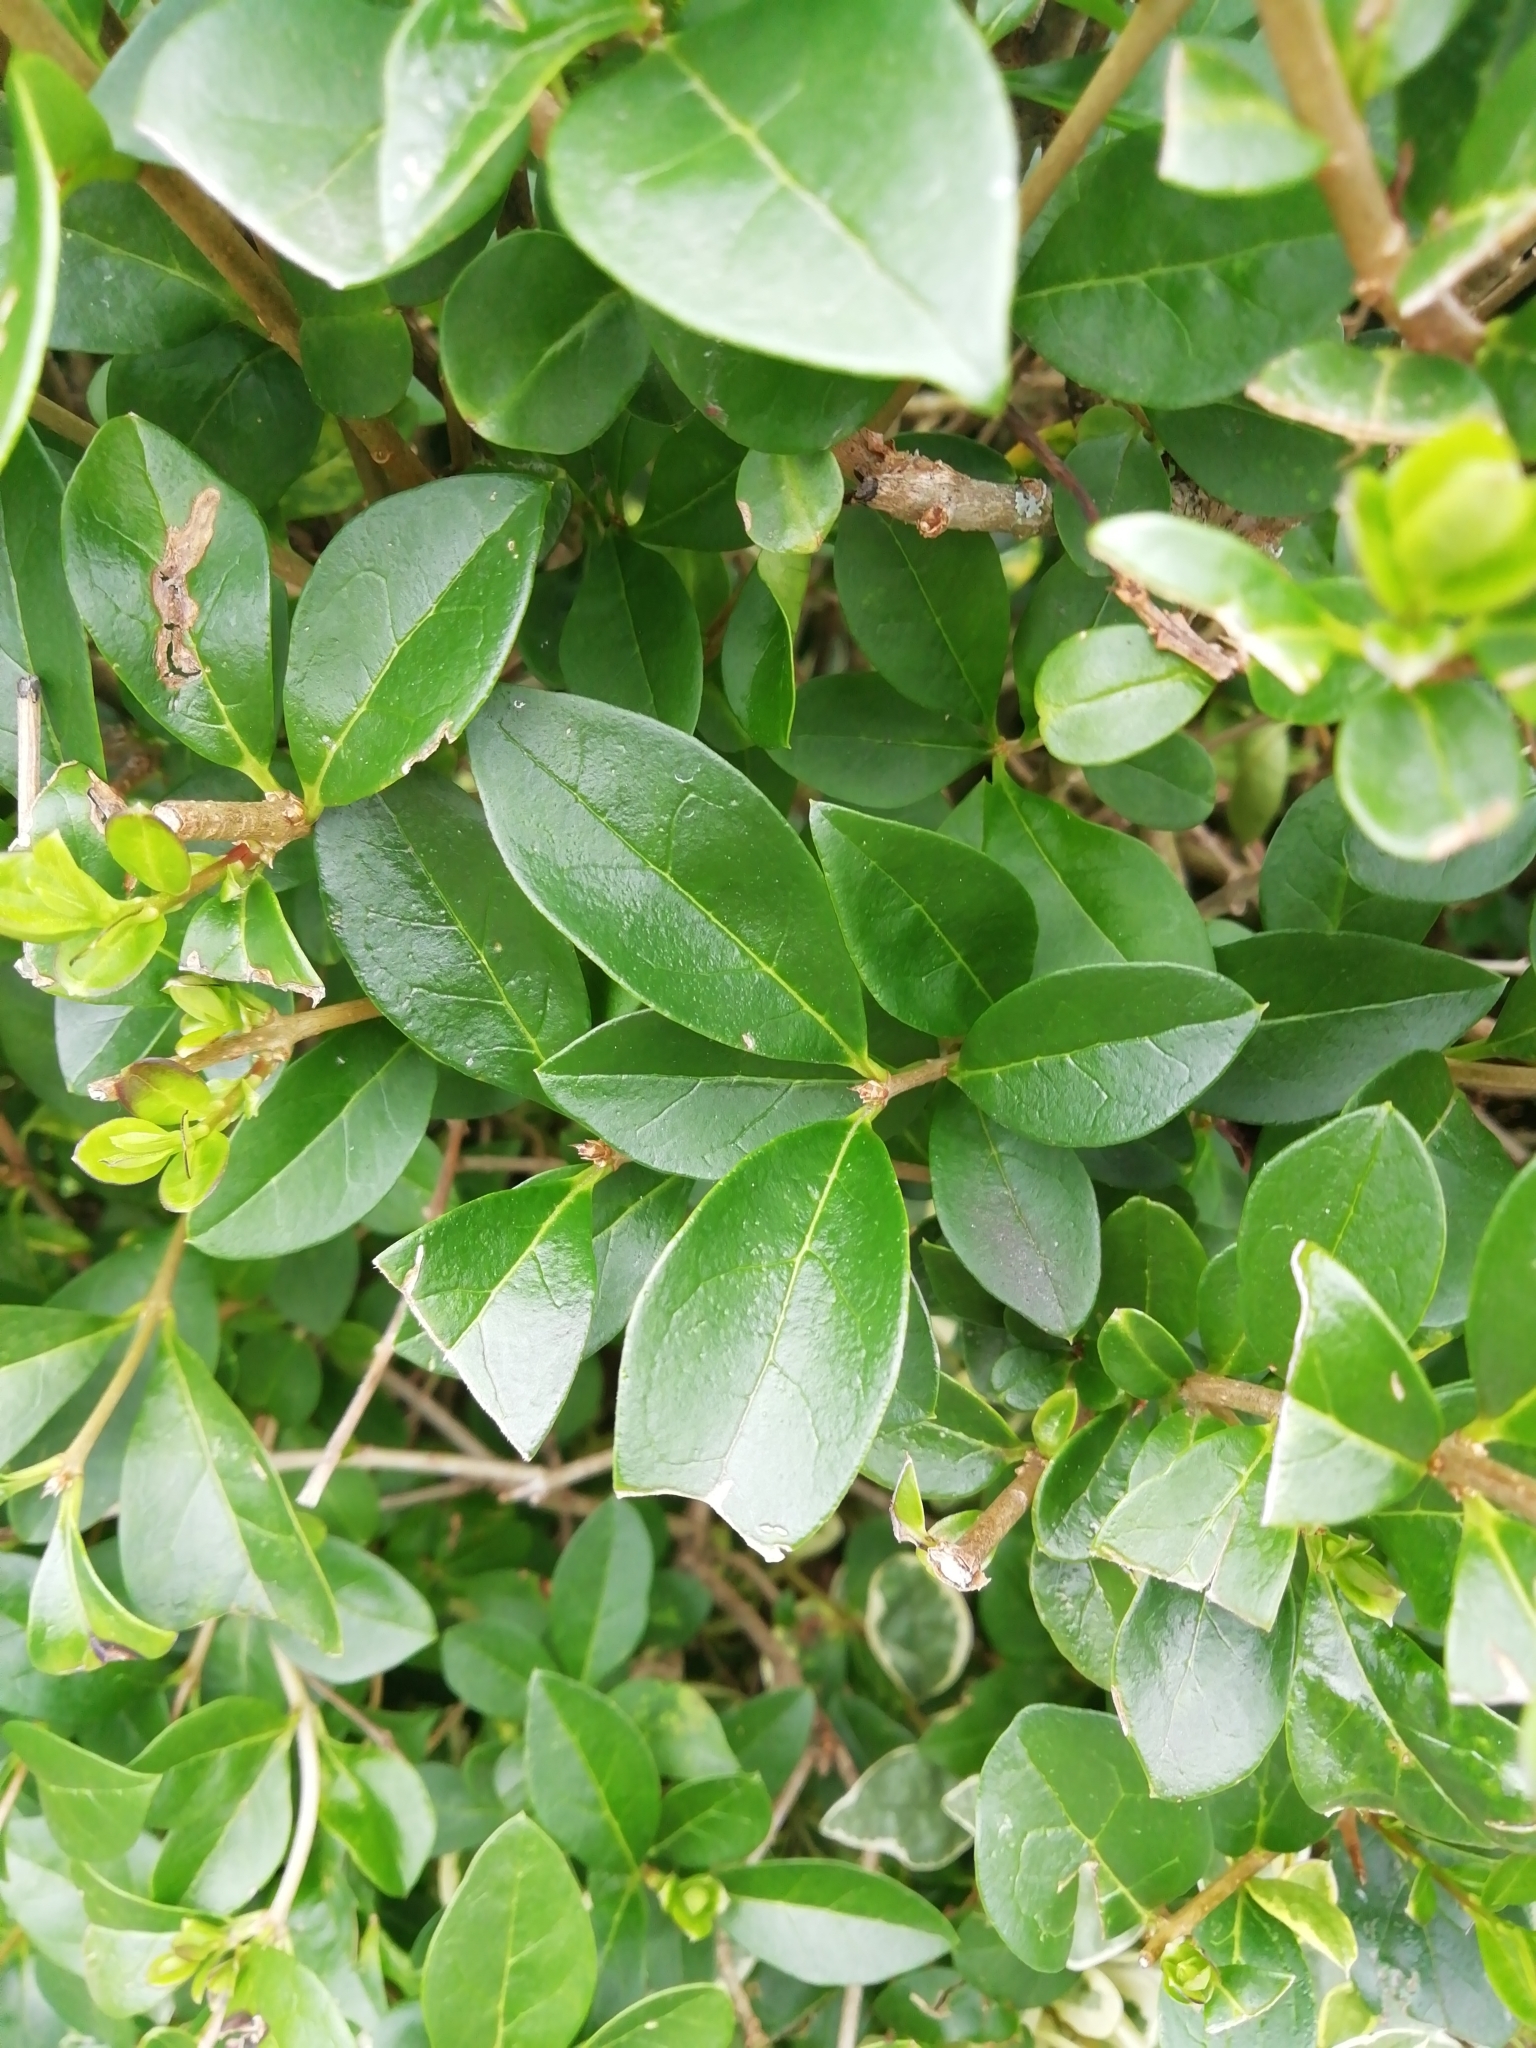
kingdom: Plantae
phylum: Tracheophyta
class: Magnoliopsida
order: Lamiales
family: Oleaceae
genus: Ligustrum
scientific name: Ligustrum ovalifolium
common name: California privet
